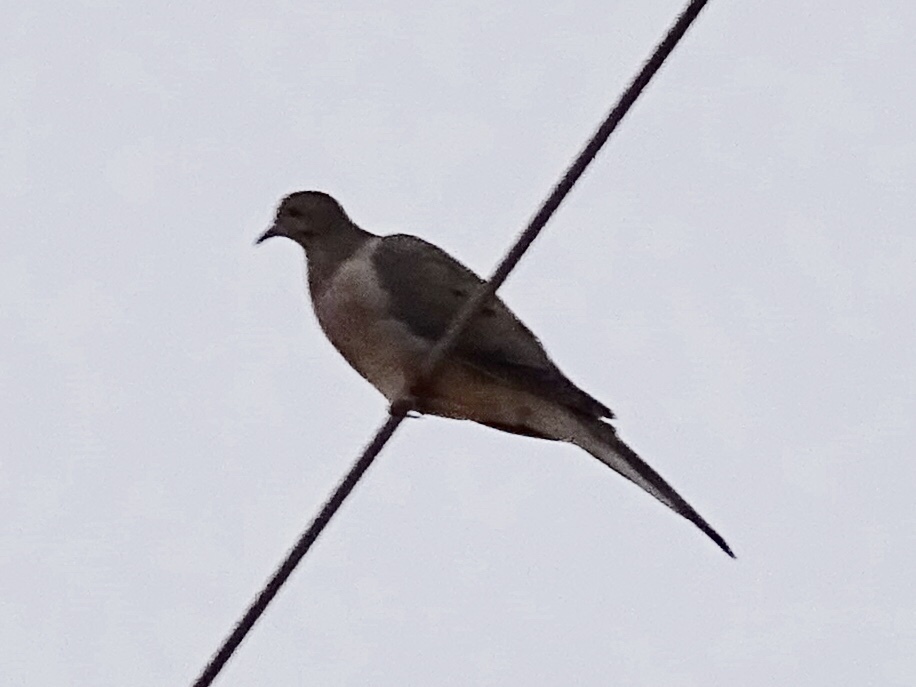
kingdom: Animalia
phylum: Chordata
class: Aves
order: Columbiformes
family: Columbidae
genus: Zenaida
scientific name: Zenaida macroura
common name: Mourning dove
